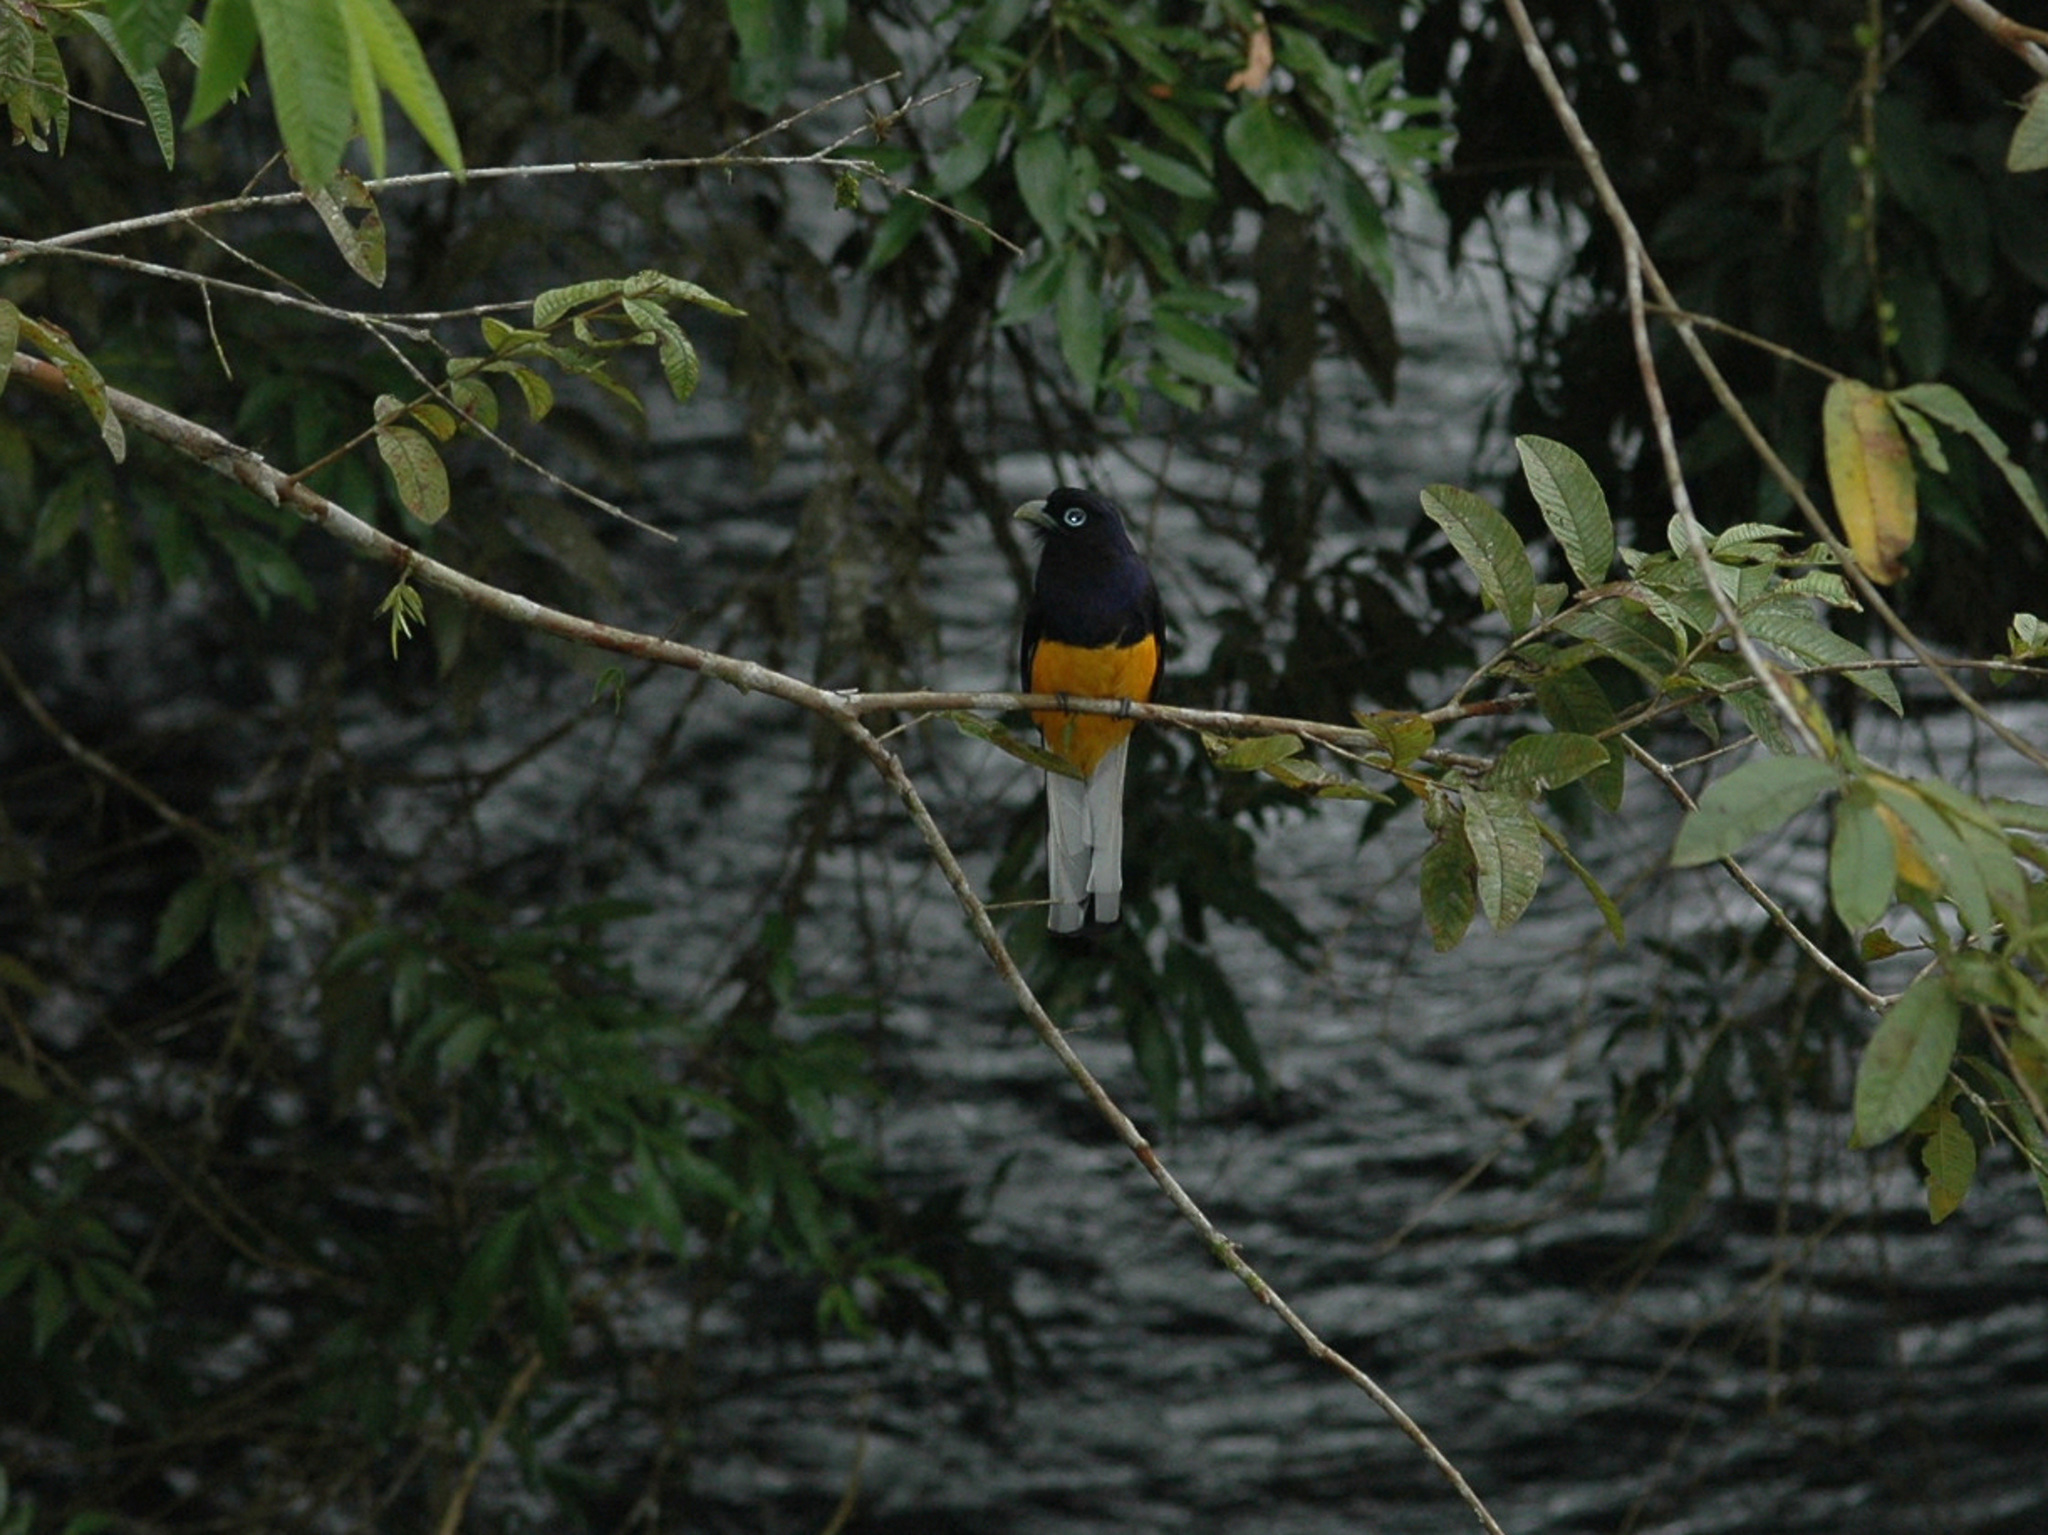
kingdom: Animalia
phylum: Chordata
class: Aves
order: Trogoniformes
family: Trogonidae
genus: Trogon
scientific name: Trogon chionurus
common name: White-tailed trogon
